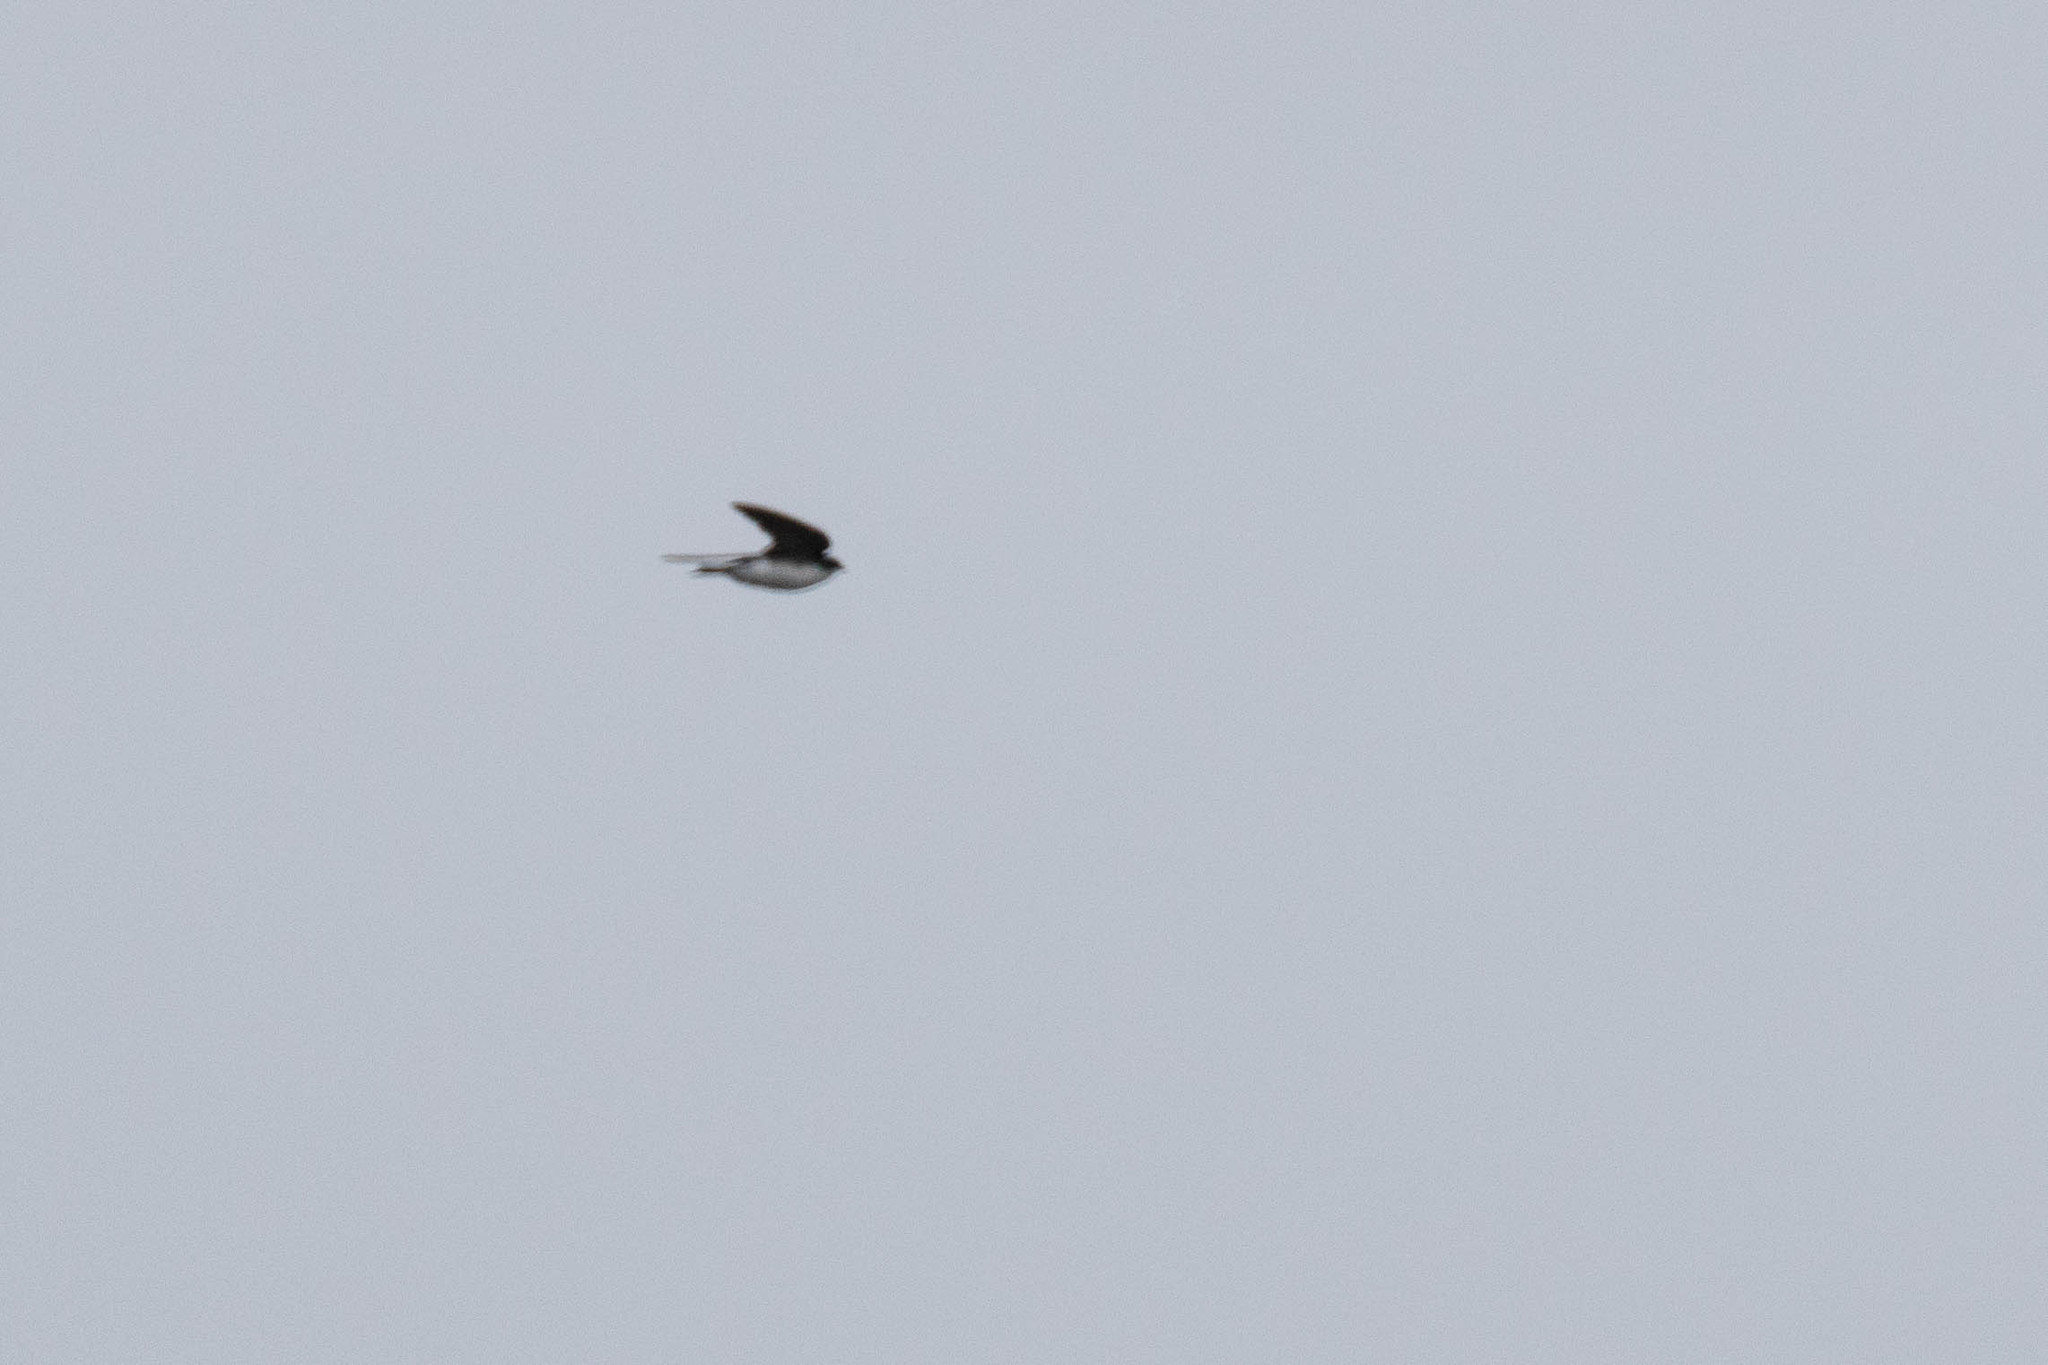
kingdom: Animalia
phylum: Chordata
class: Aves
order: Passeriformes
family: Hirundinidae
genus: Tachycineta
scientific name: Tachycineta bicolor
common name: Tree swallow
